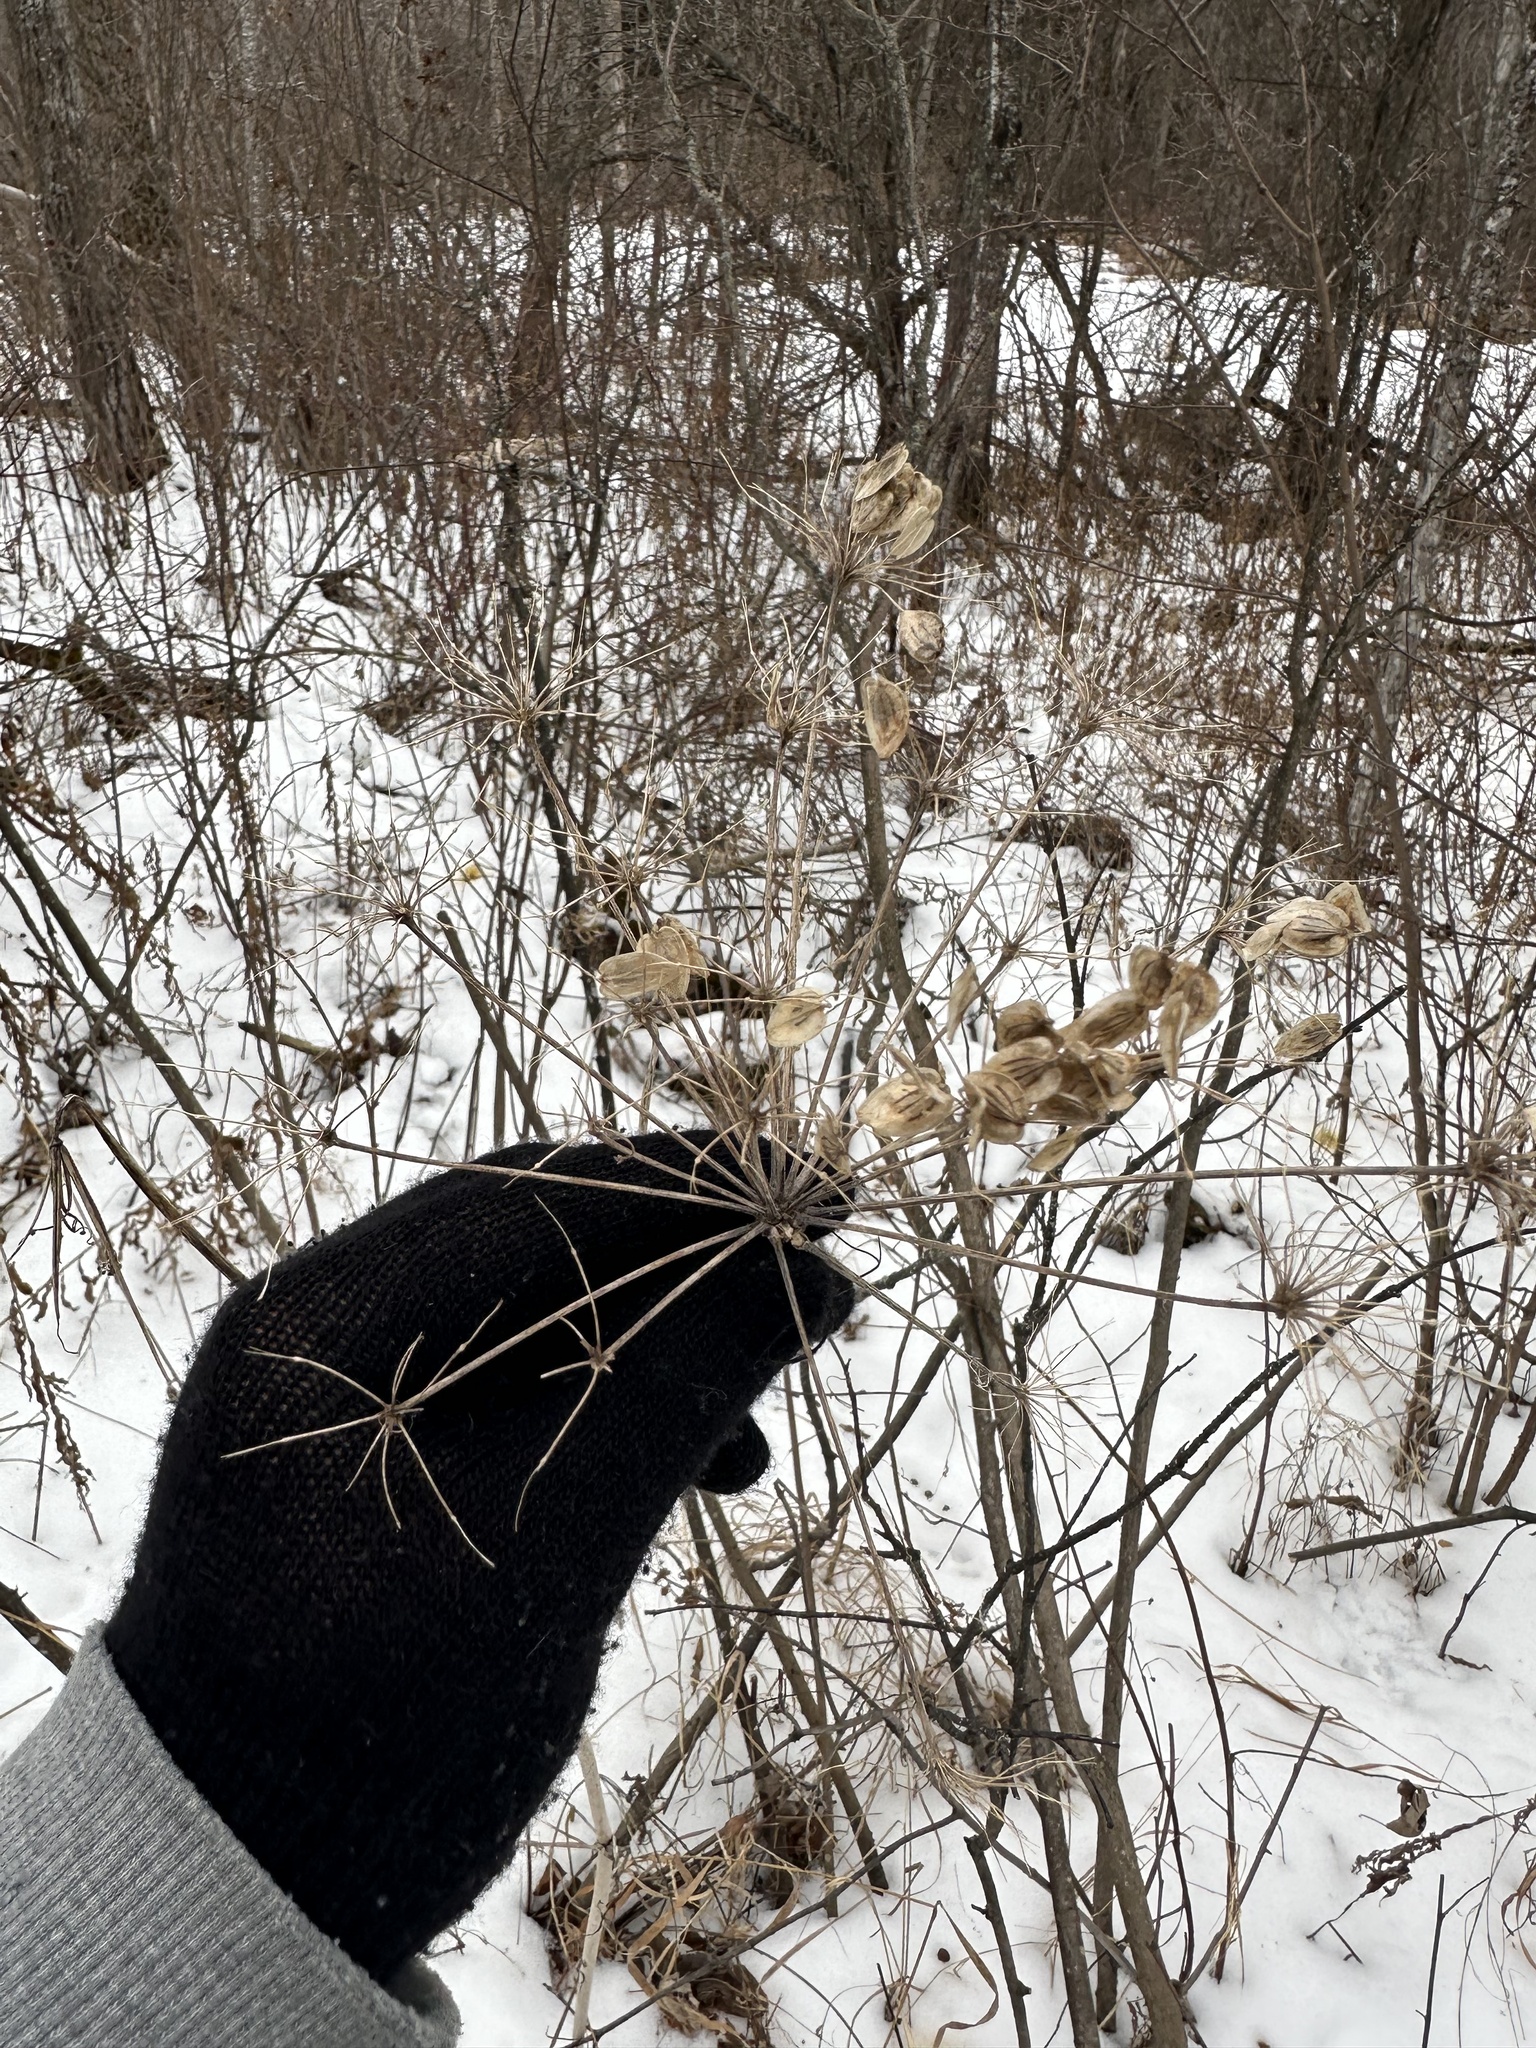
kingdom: Plantae
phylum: Tracheophyta
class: Magnoliopsida
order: Apiales
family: Apiaceae
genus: Heracleum
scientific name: Heracleum maximum
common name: American cow parsnip
